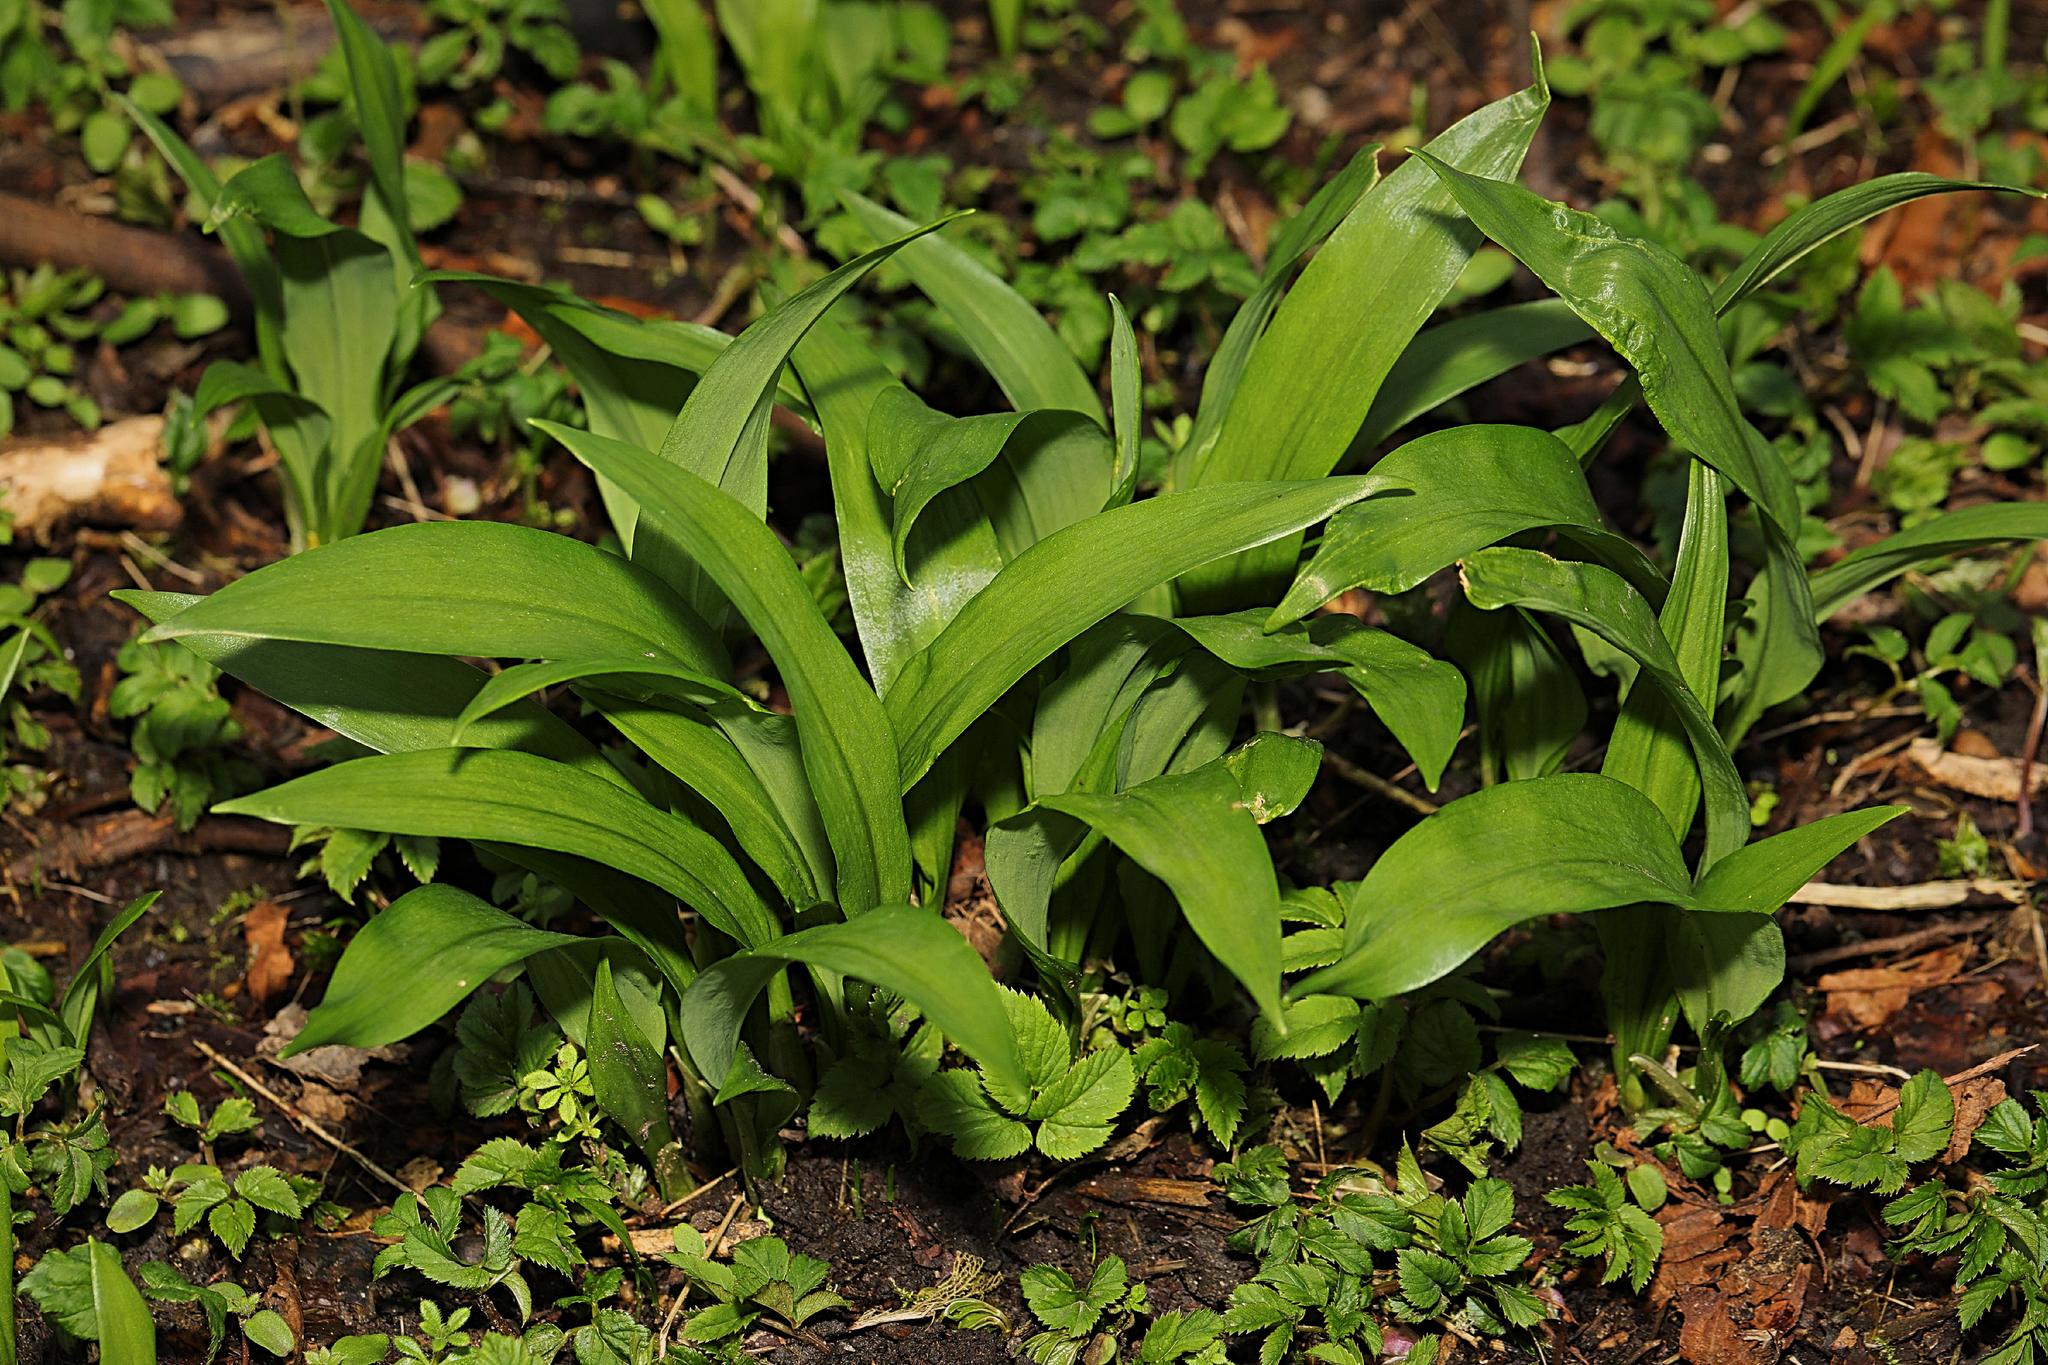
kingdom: Plantae
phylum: Tracheophyta
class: Liliopsida
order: Asparagales
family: Amaryllidaceae
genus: Allium
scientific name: Allium ursinum
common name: Ramsons
